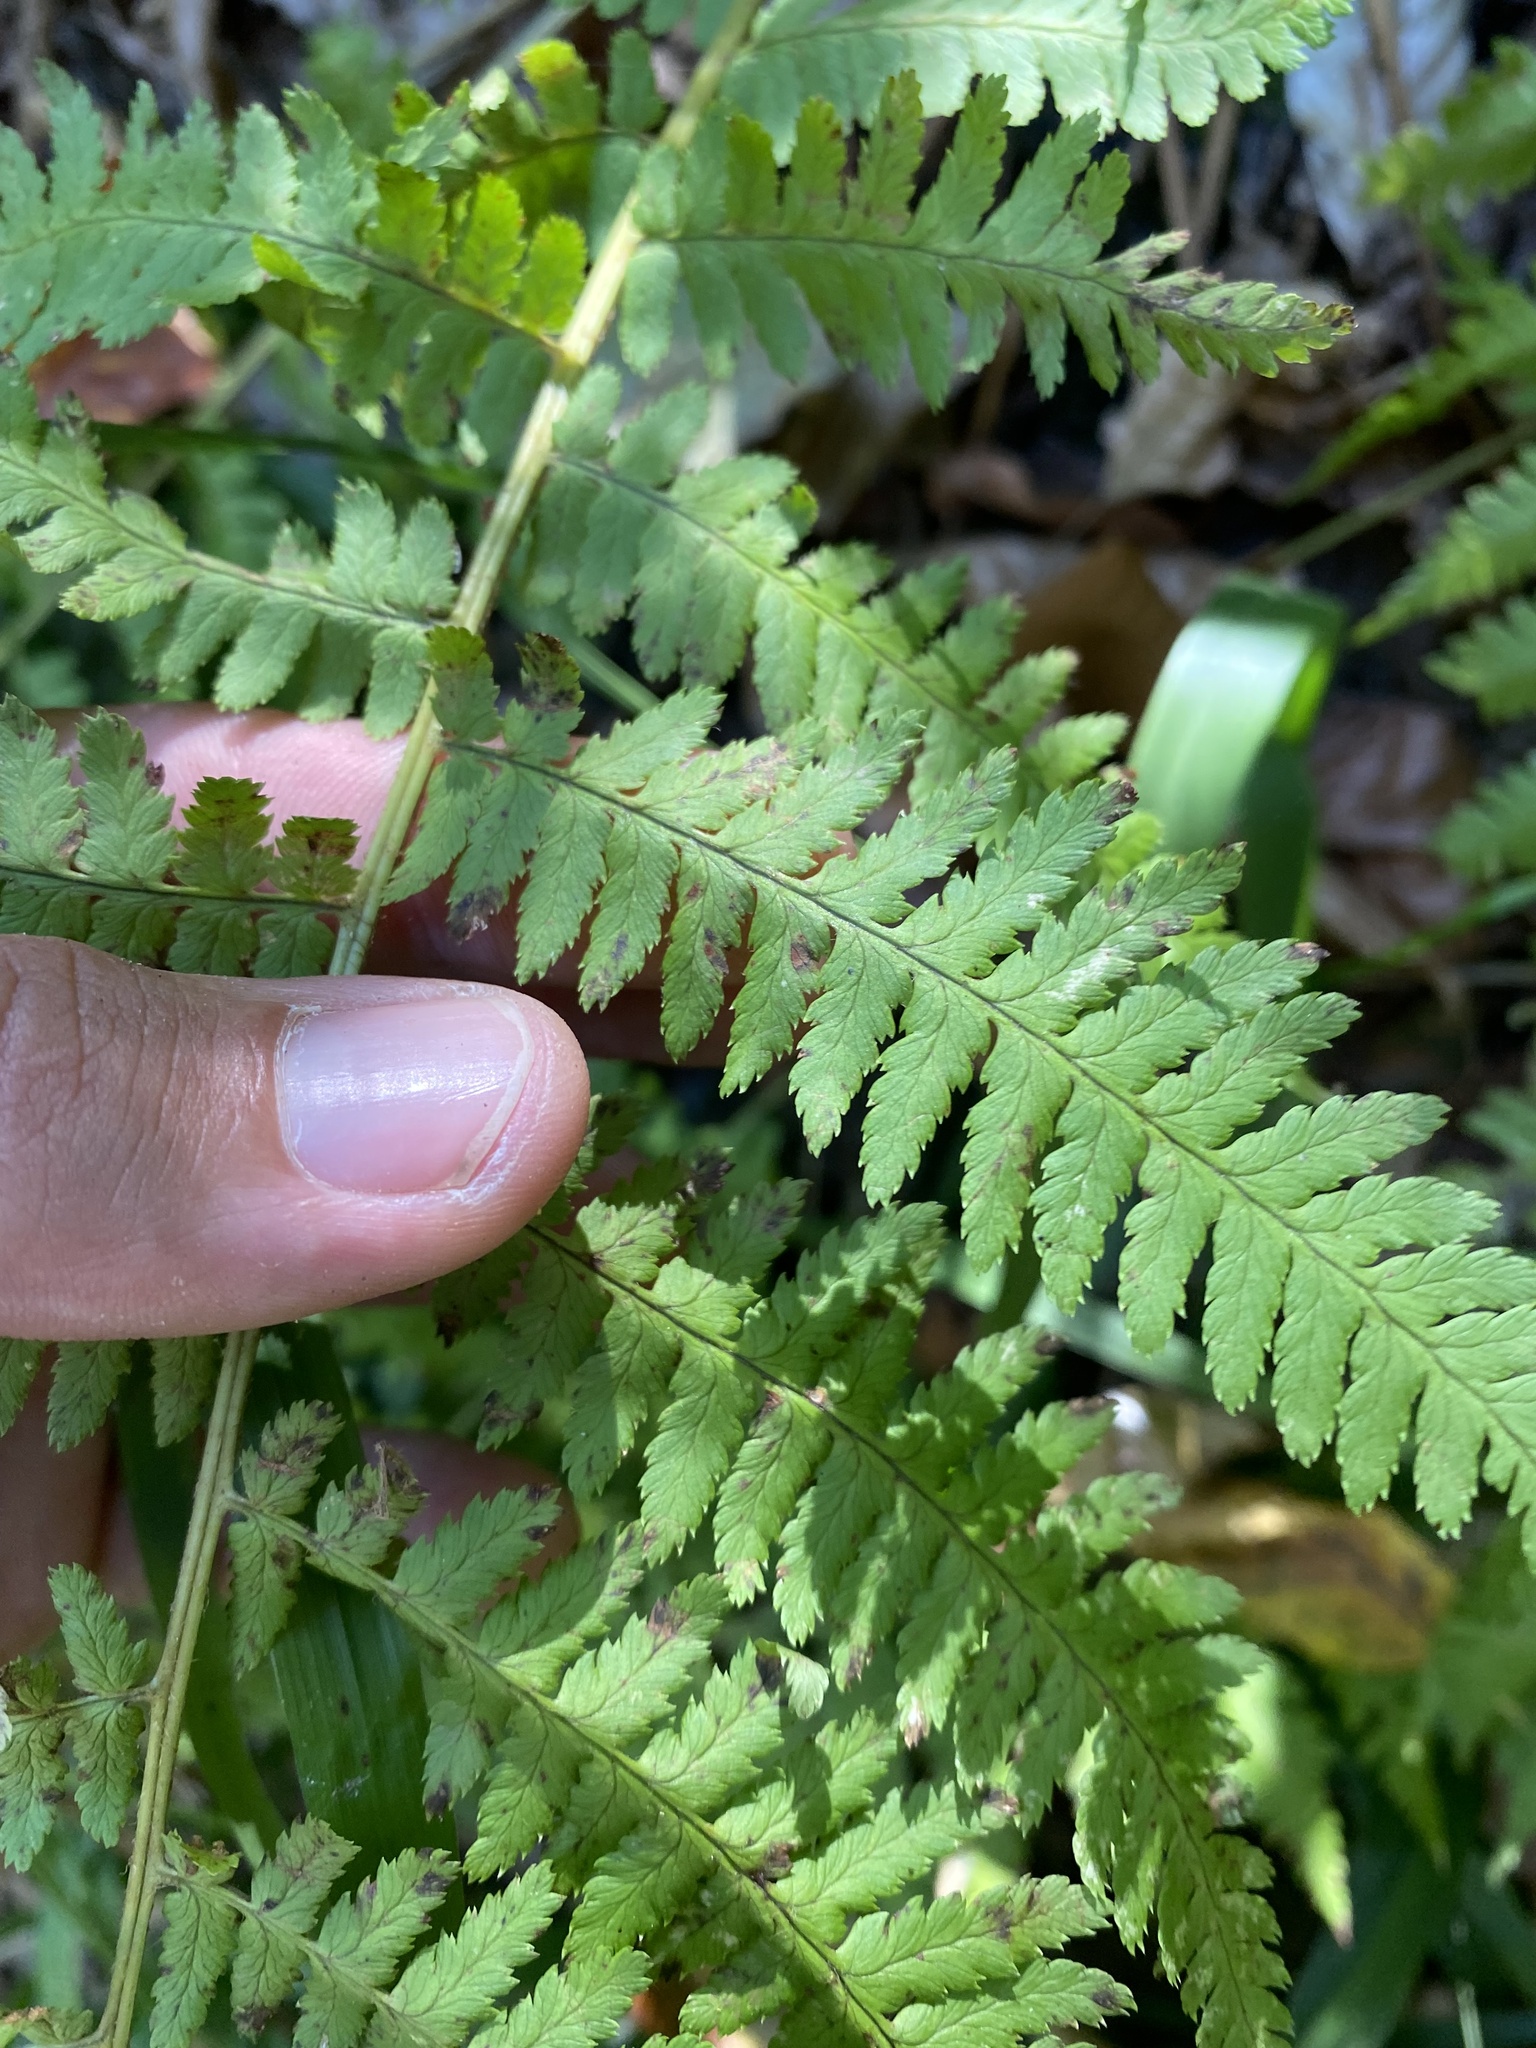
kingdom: Plantae
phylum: Tracheophyta
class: Polypodiopsida
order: Polypodiales
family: Dryopteridaceae
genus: Dryopteris
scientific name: Dryopteris filix-mas
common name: Male fern
